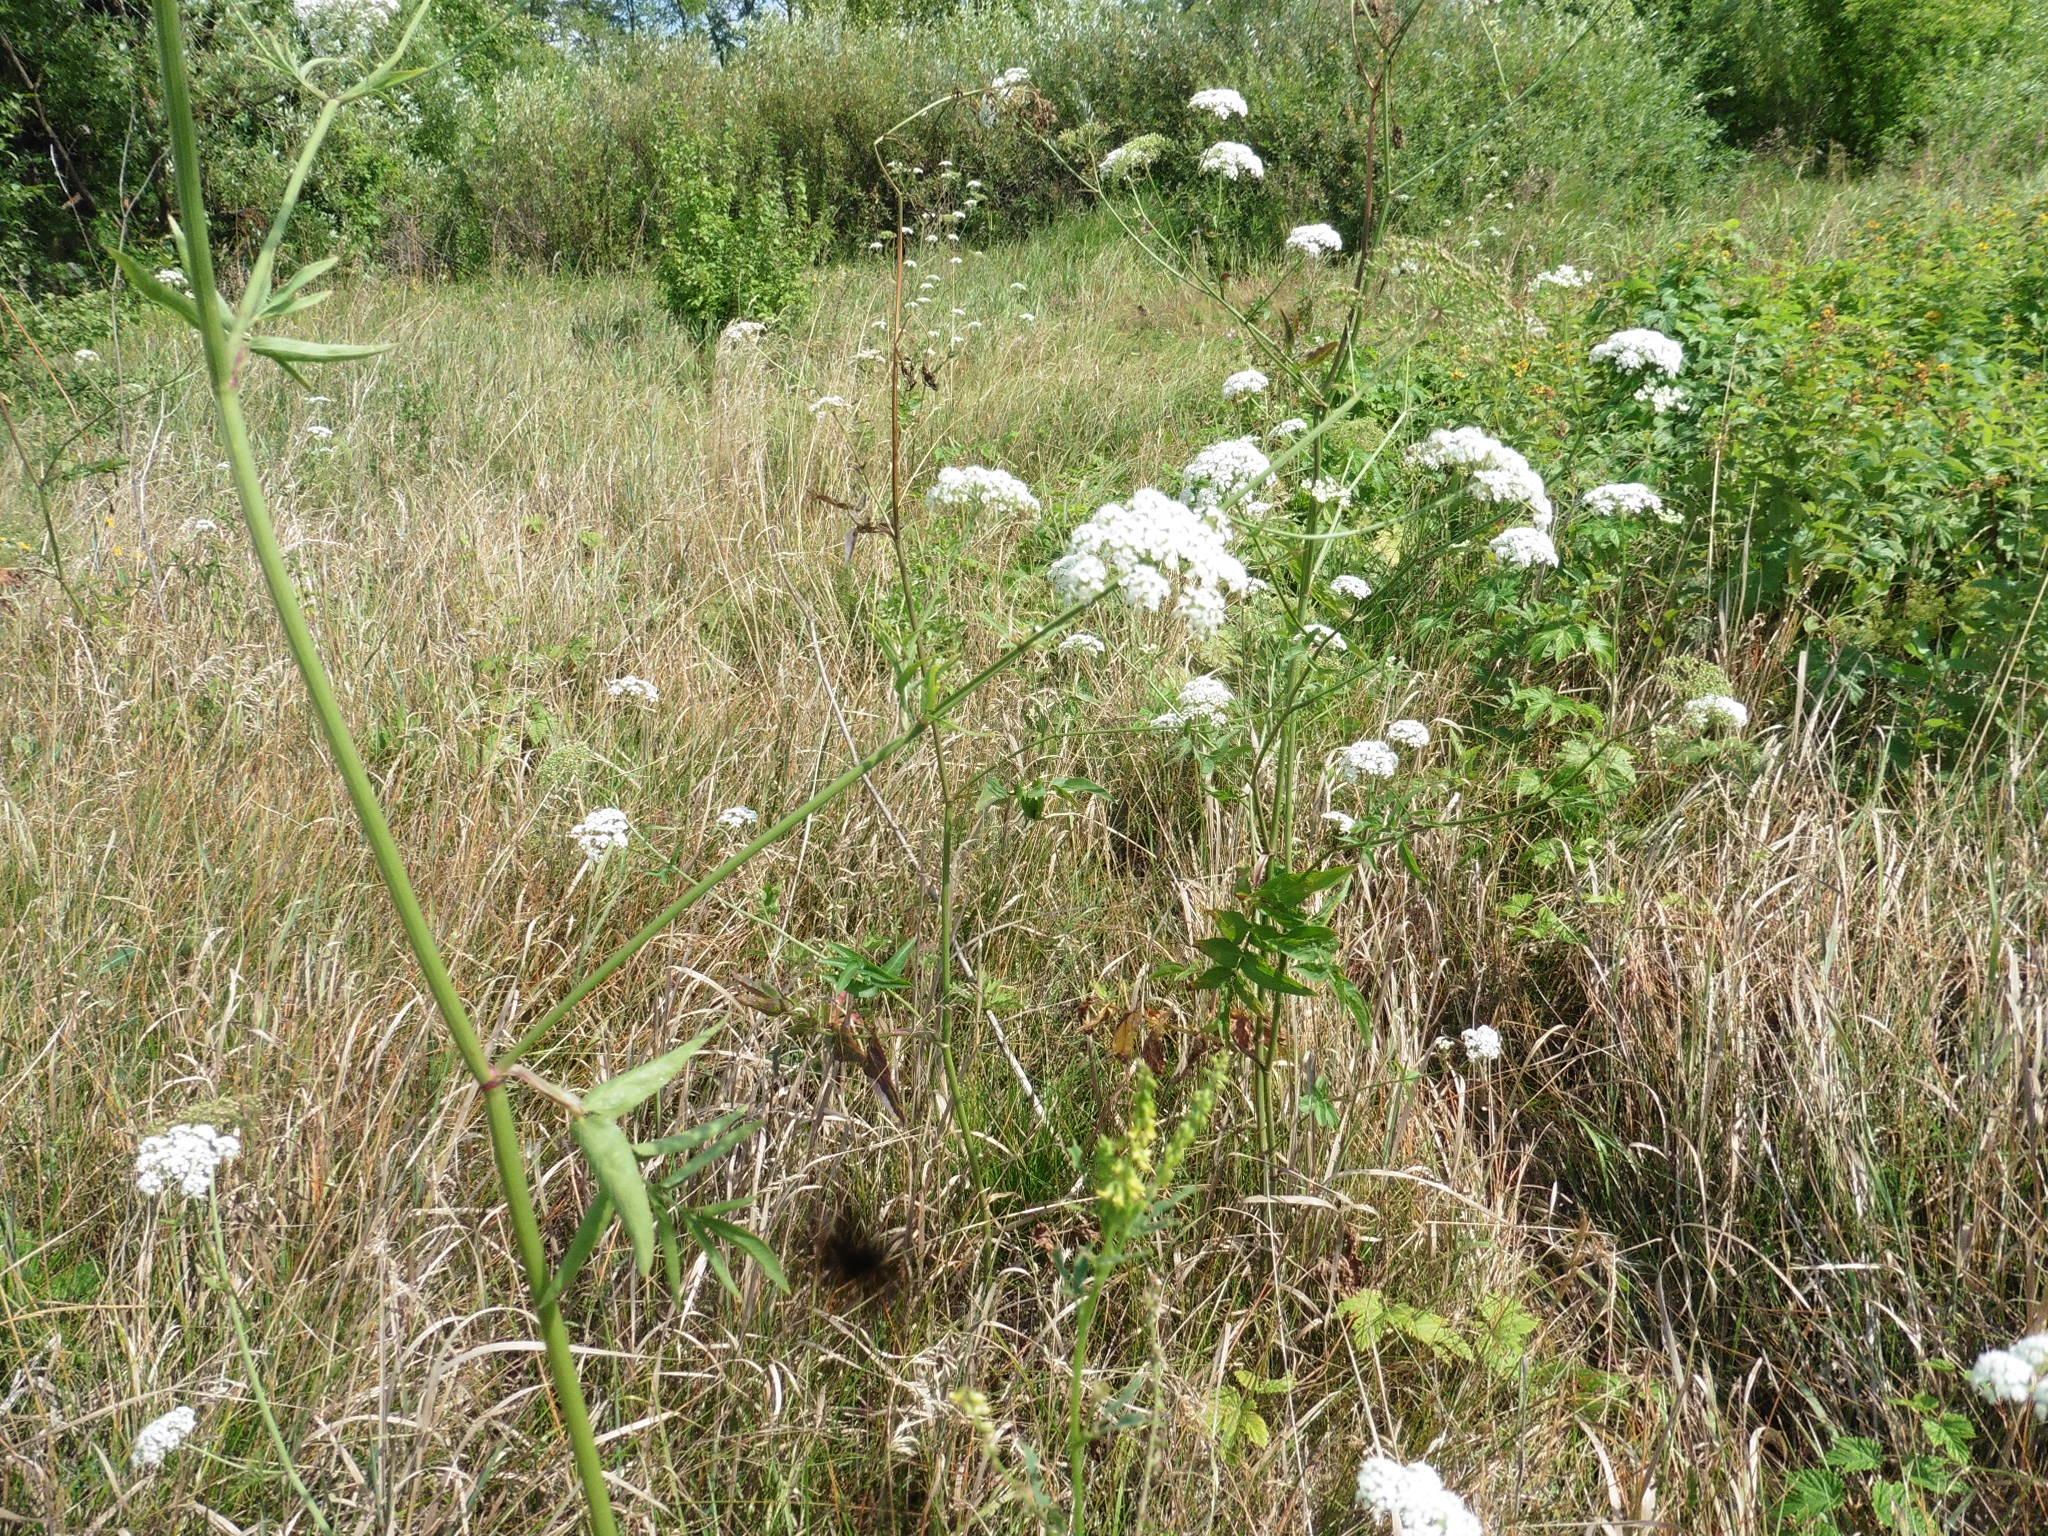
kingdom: Plantae
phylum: Tracheophyta
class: Magnoliopsida
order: Apiales
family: Apiaceae
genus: Sium
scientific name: Sium sisarum
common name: Skirret
